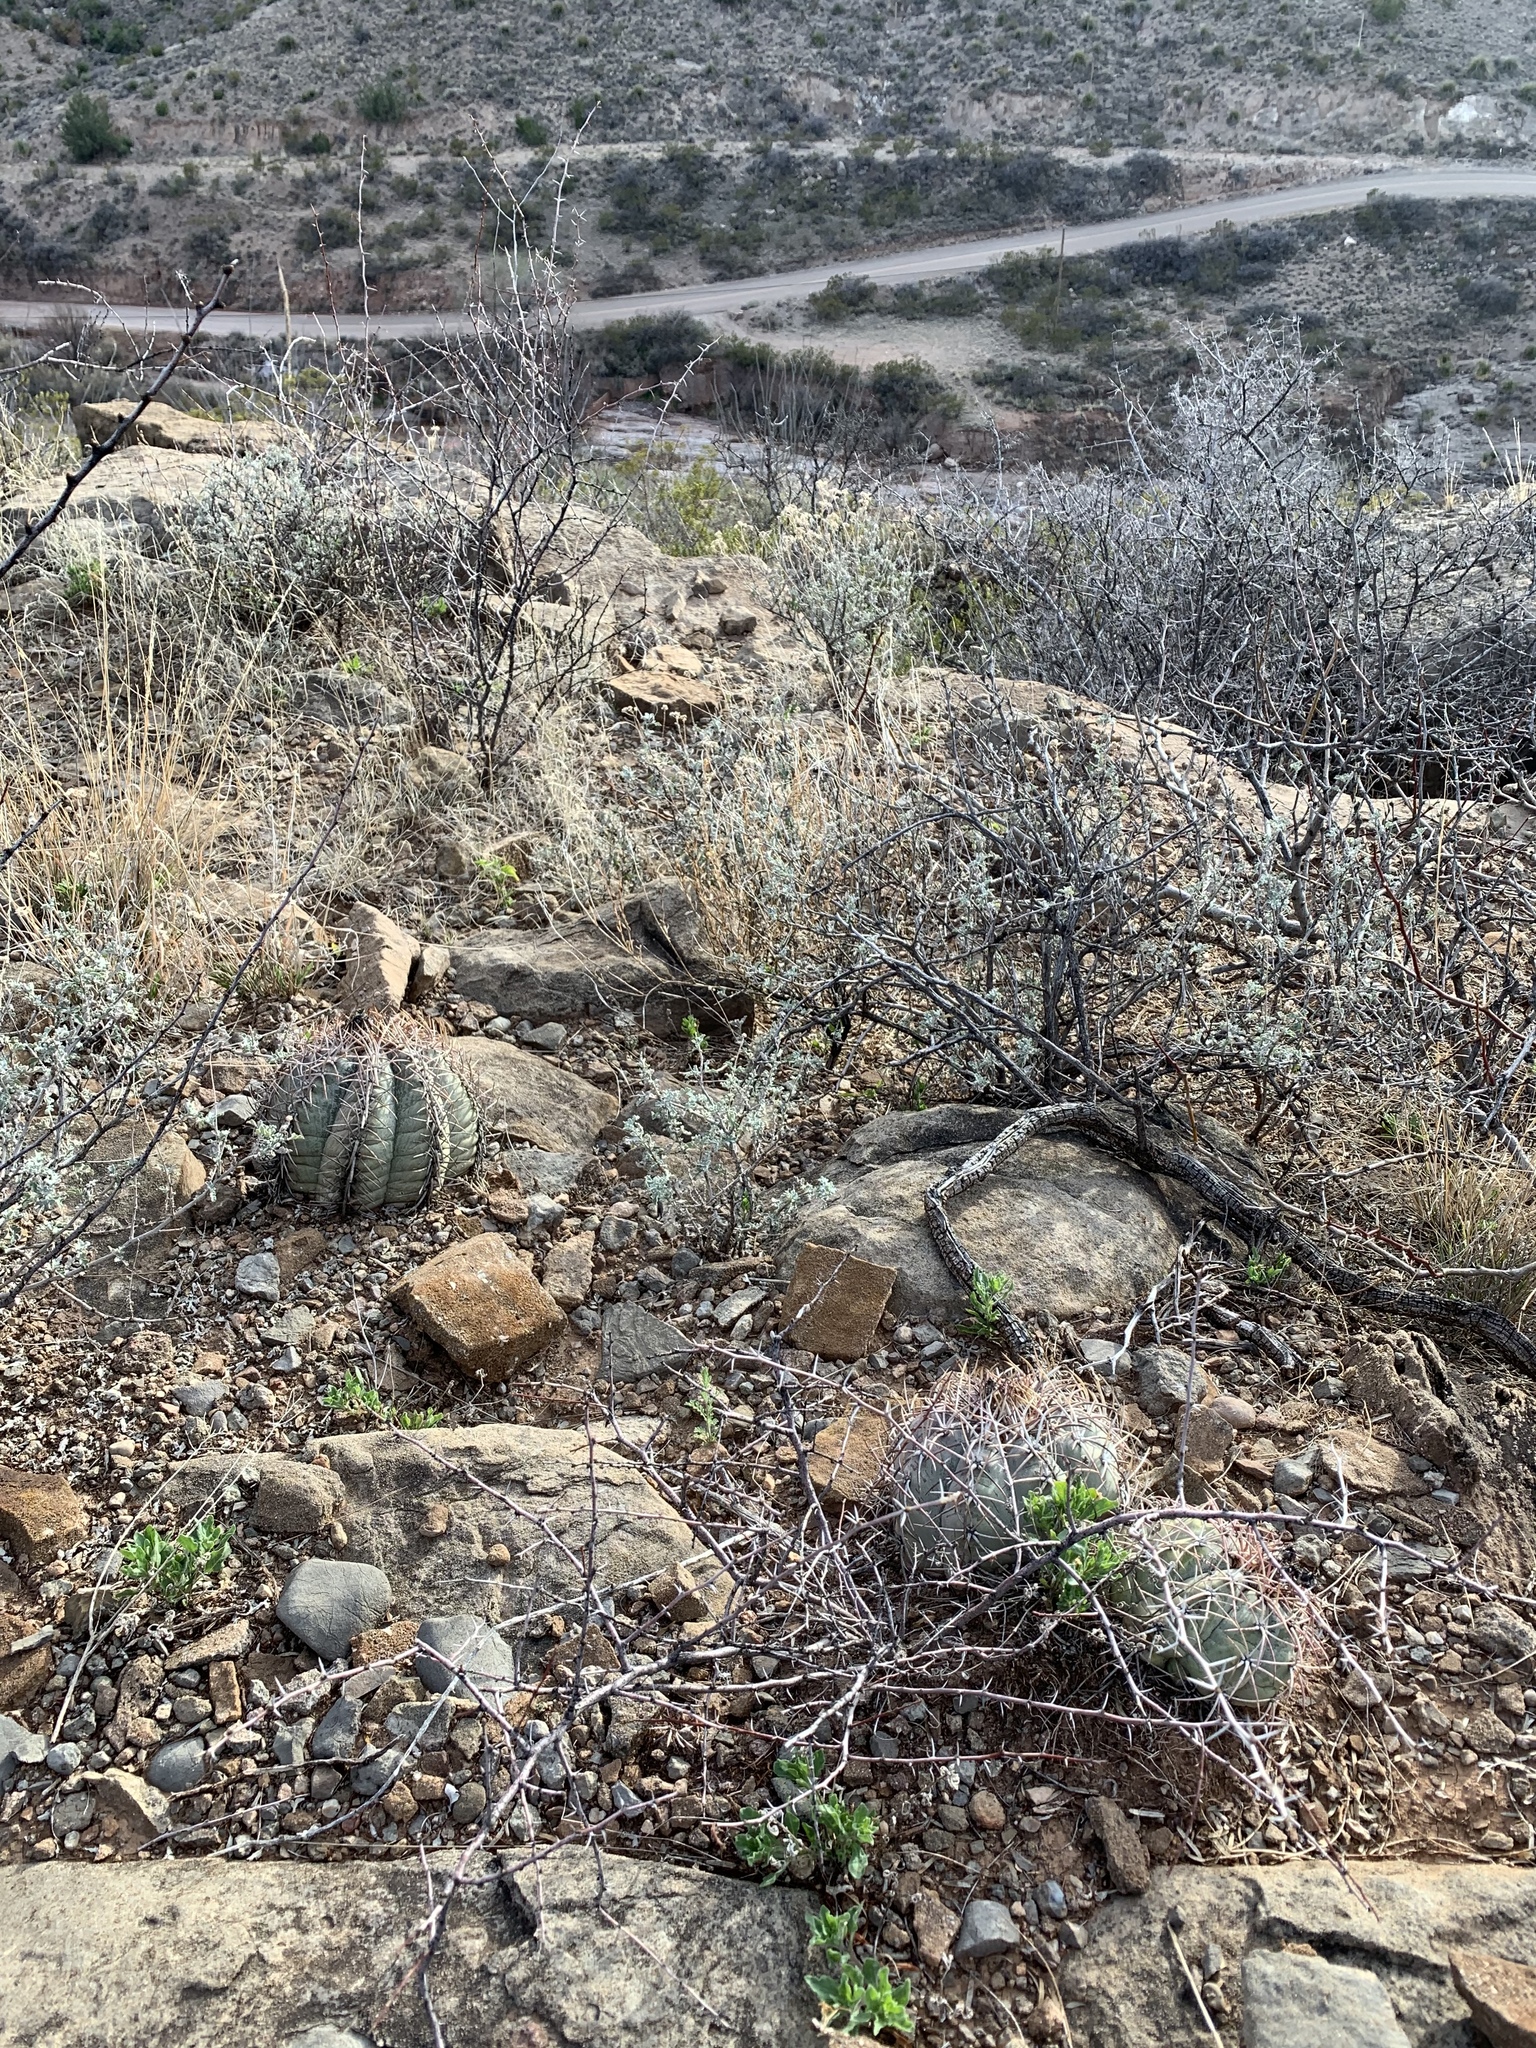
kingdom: Plantae
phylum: Tracheophyta
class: Magnoliopsida
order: Caryophyllales
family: Cactaceae
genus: Echinocactus
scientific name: Echinocactus horizonthalonius
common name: Devilshead
